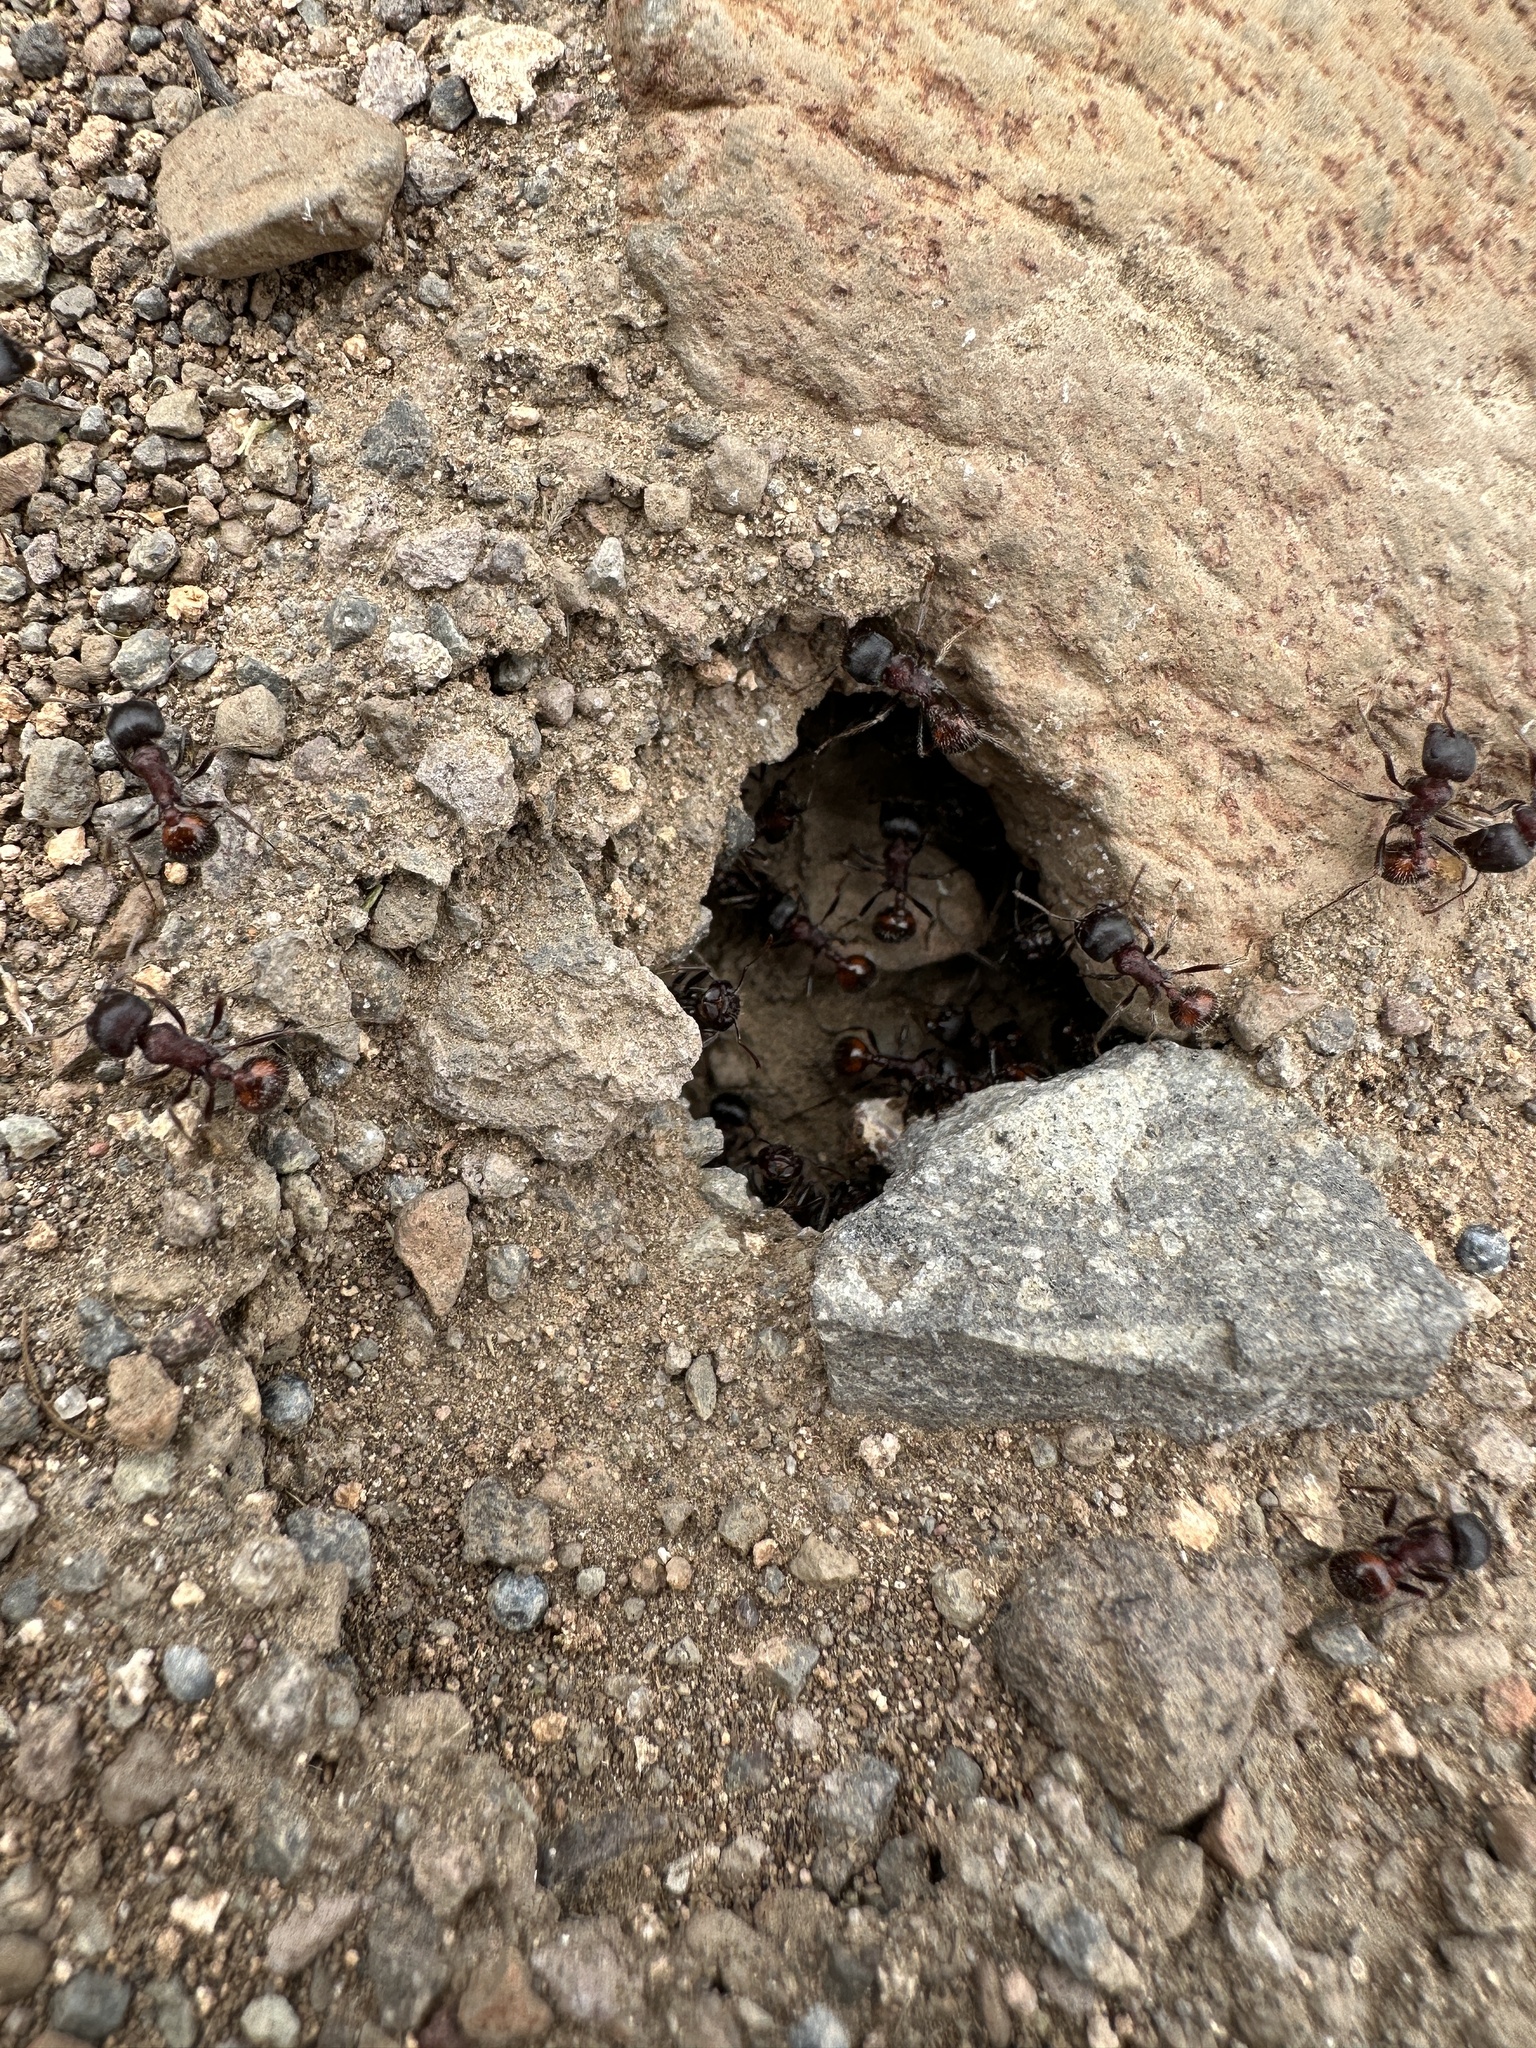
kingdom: Animalia
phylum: Arthropoda
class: Insecta
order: Hymenoptera
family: Formicidae
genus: Pogonomyrmex
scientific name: Pogonomyrmex rugosus
